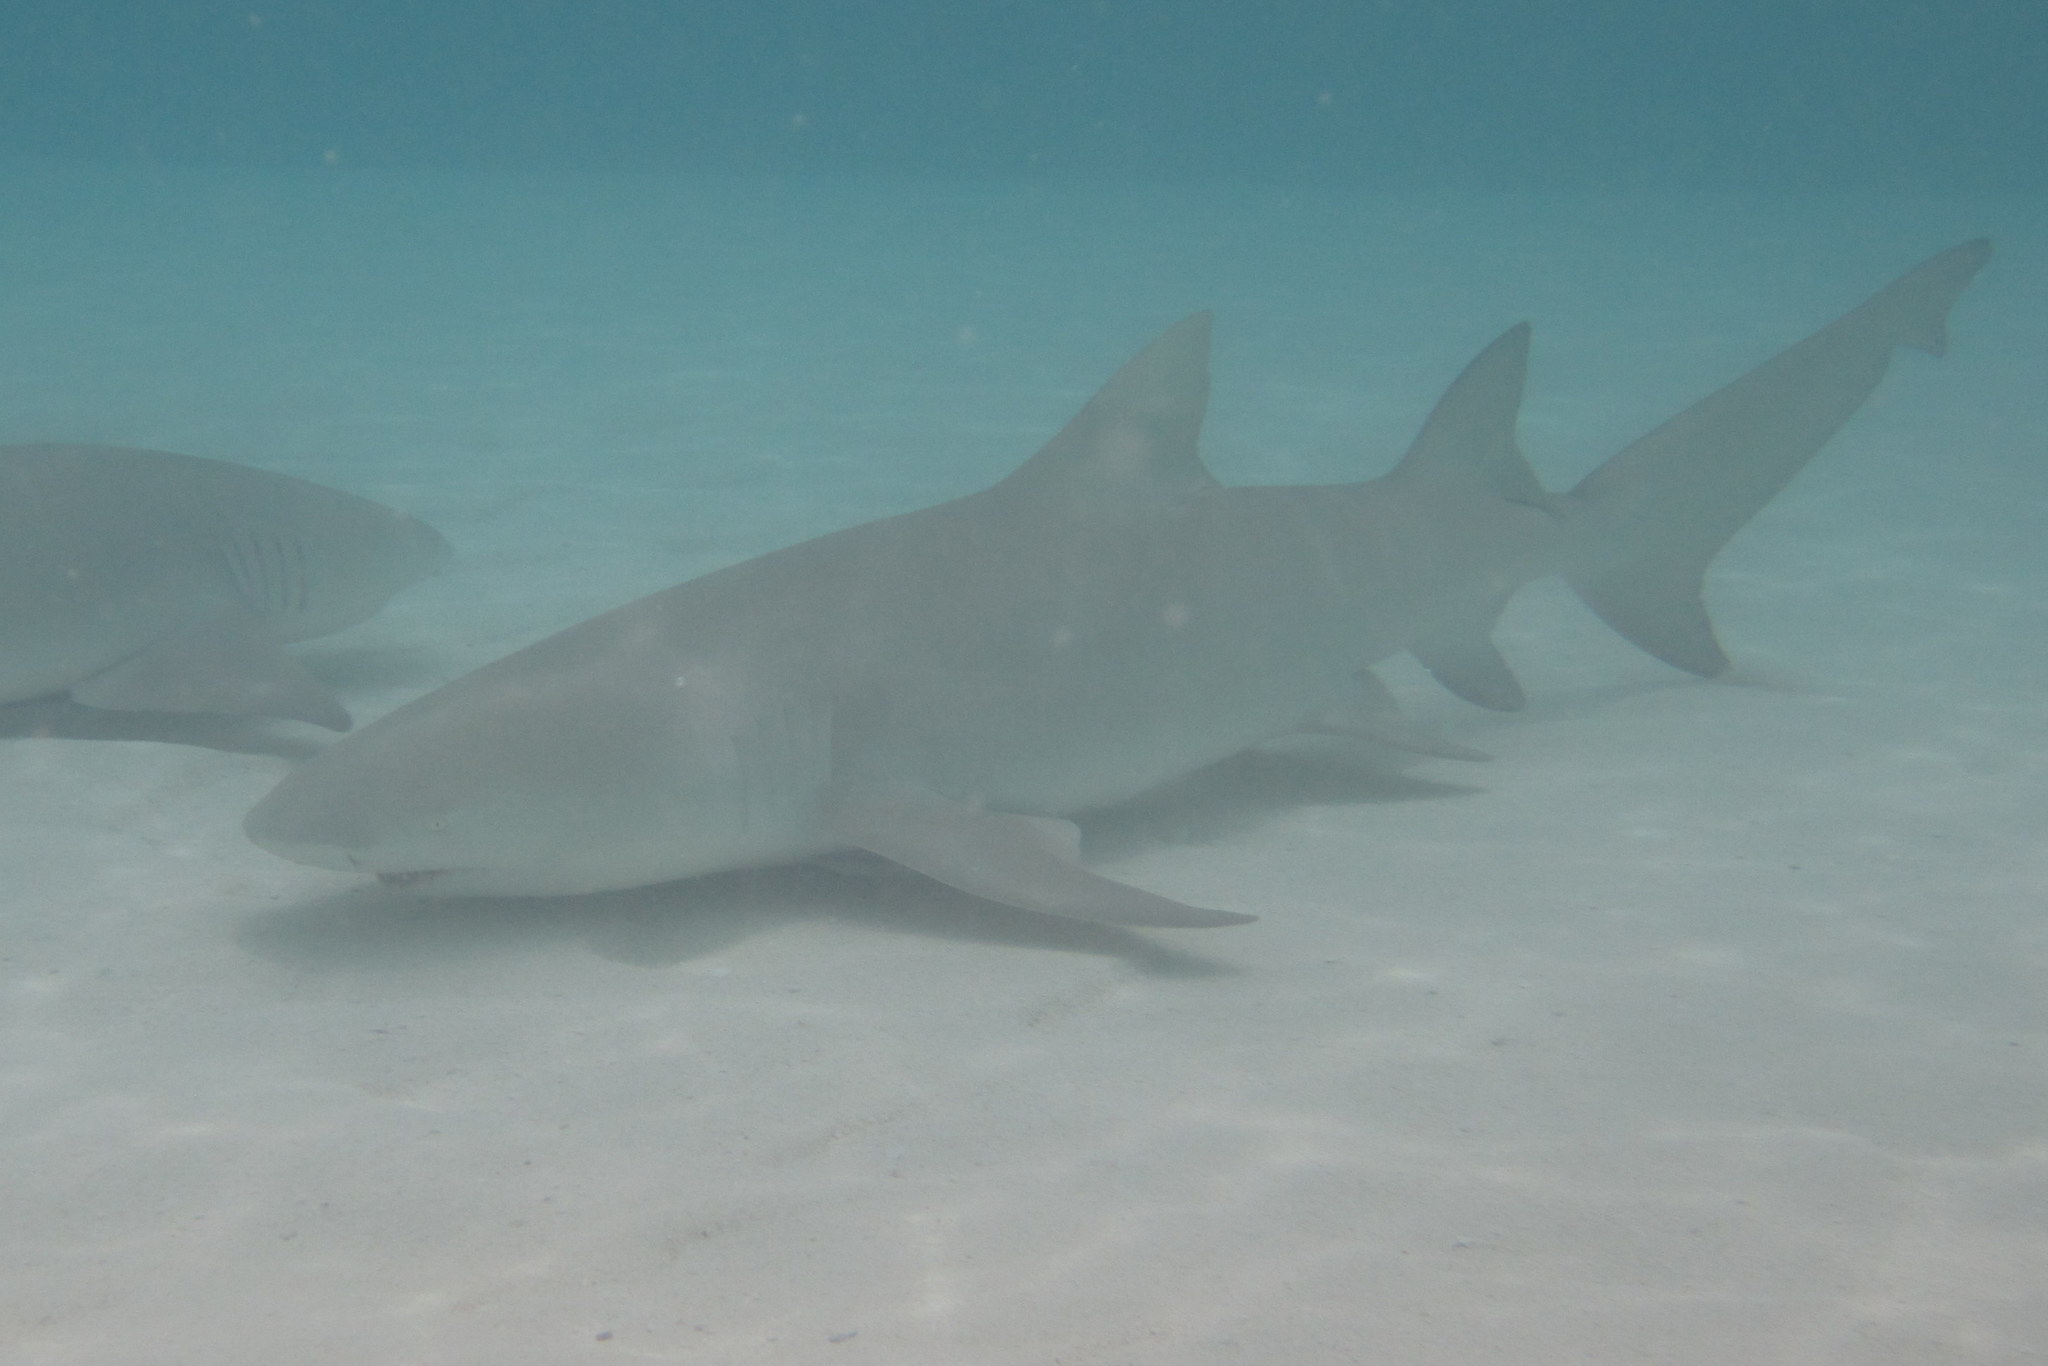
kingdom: Animalia
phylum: Chordata
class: Elasmobranchii
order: Carcharhiniformes
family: Carcharhinidae
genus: Negaprion
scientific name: Negaprion acutidens
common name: Lemon shark
